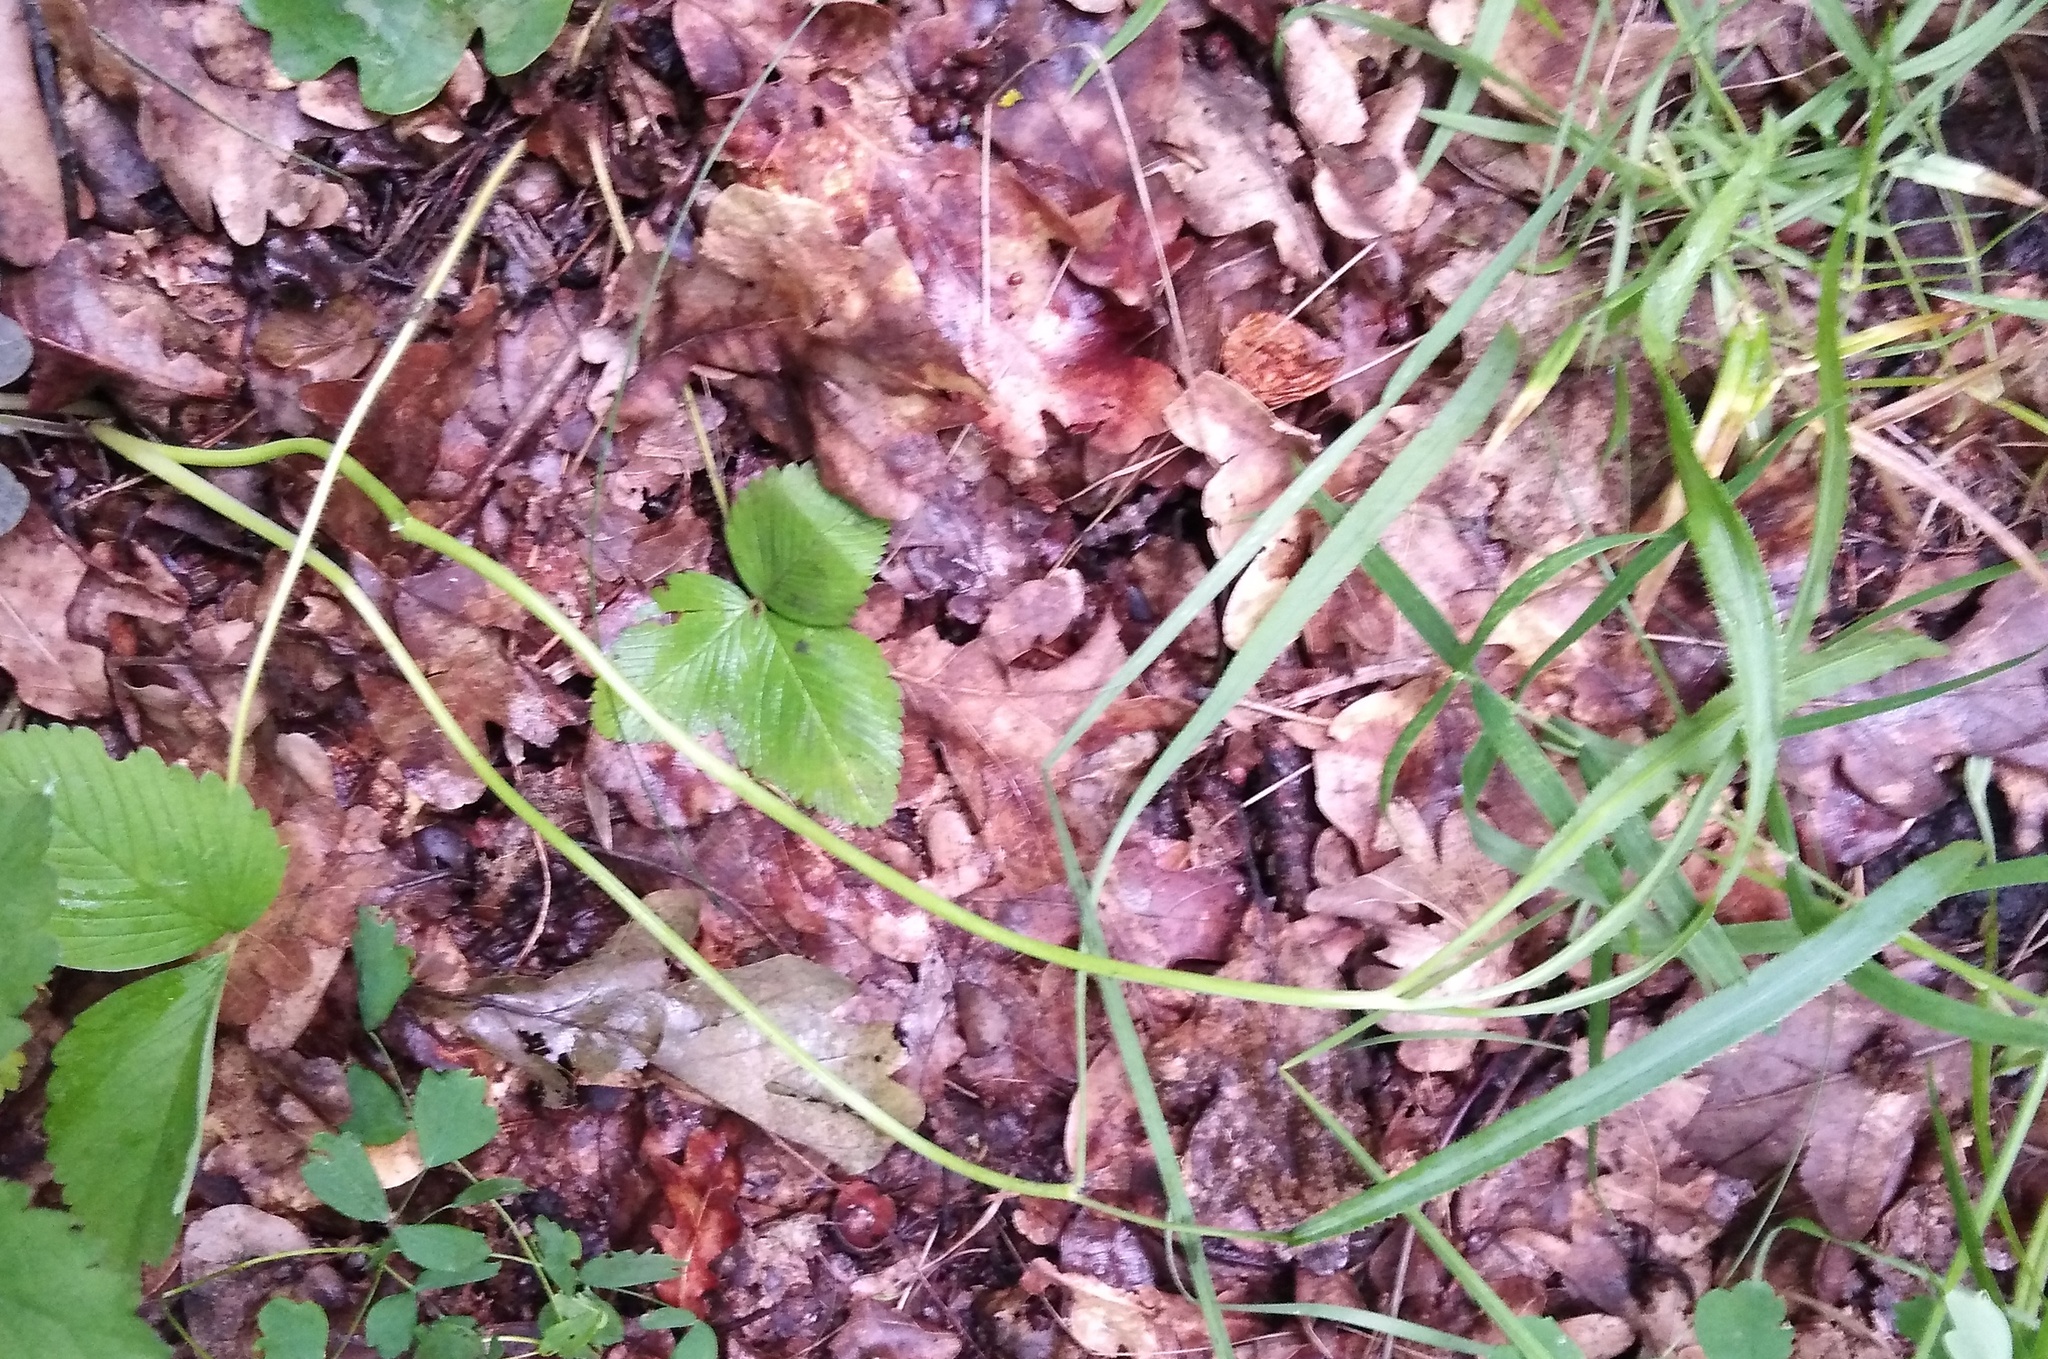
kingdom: Plantae
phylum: Tracheophyta
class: Magnoliopsida
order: Apiales
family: Apiaceae
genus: Falcaria
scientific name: Falcaria vulgaris
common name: Longleaf
